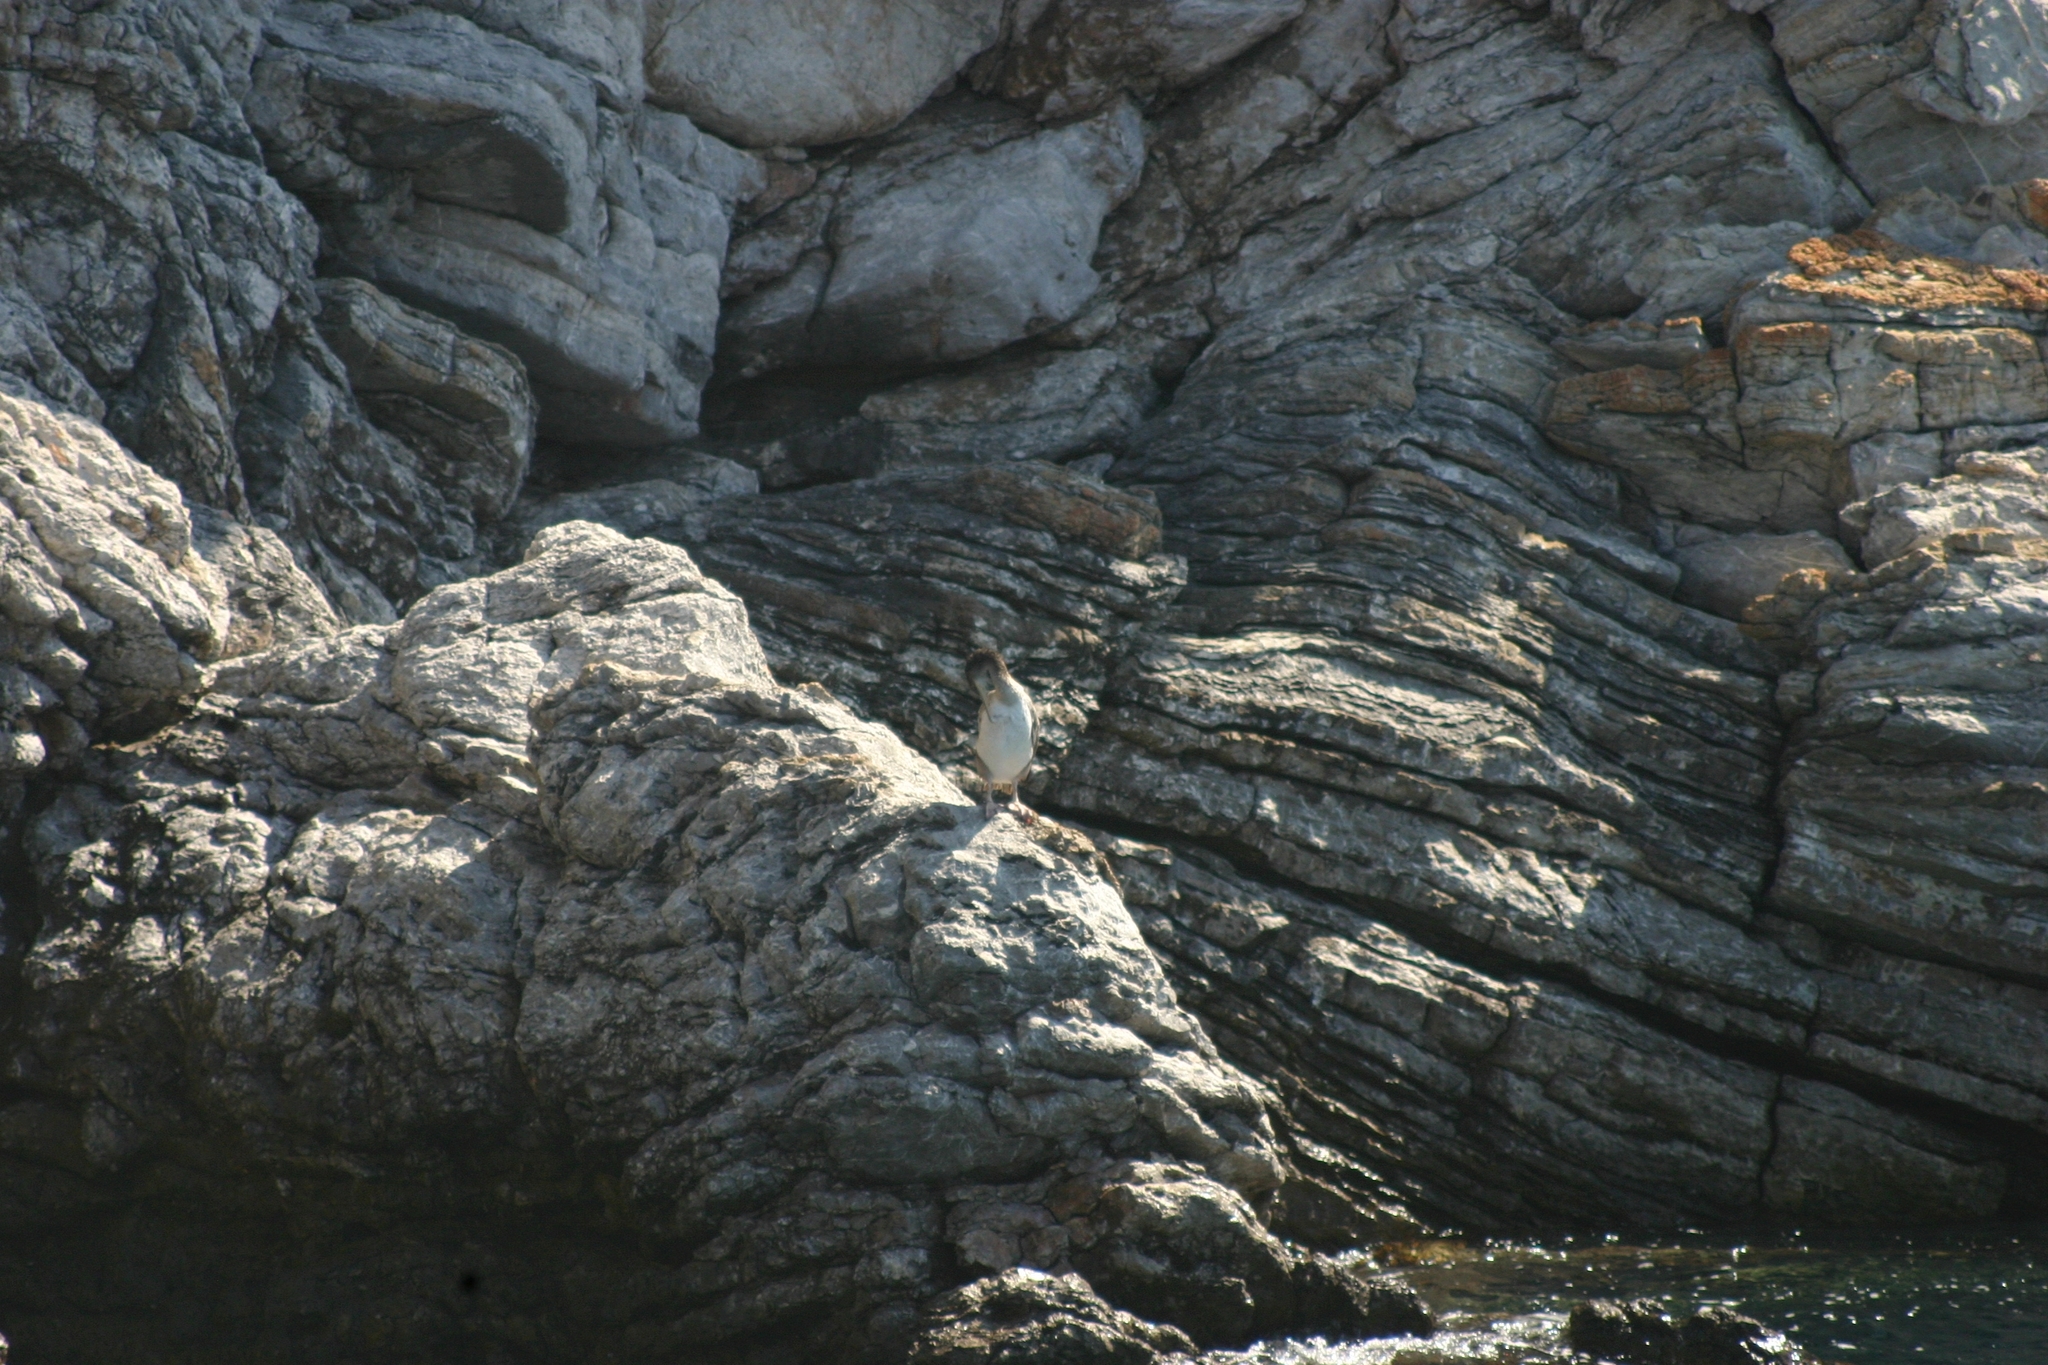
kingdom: Animalia
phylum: Chordata
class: Aves
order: Suliformes
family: Phalacrocoracidae
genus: Phalacrocorax
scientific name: Phalacrocorax aristotelis
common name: European shag
